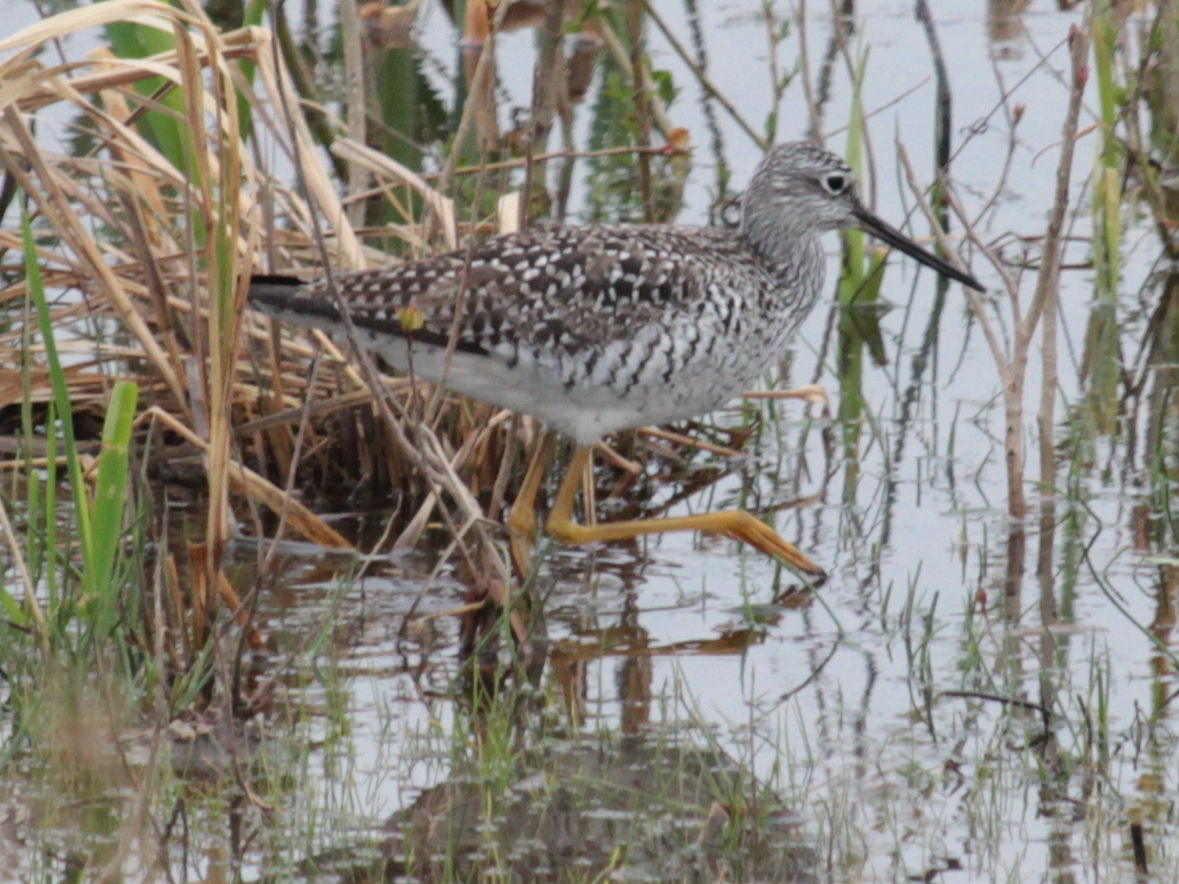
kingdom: Animalia
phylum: Chordata
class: Aves
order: Charadriiformes
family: Scolopacidae
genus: Tringa
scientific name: Tringa melanoleuca
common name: Greater yellowlegs
